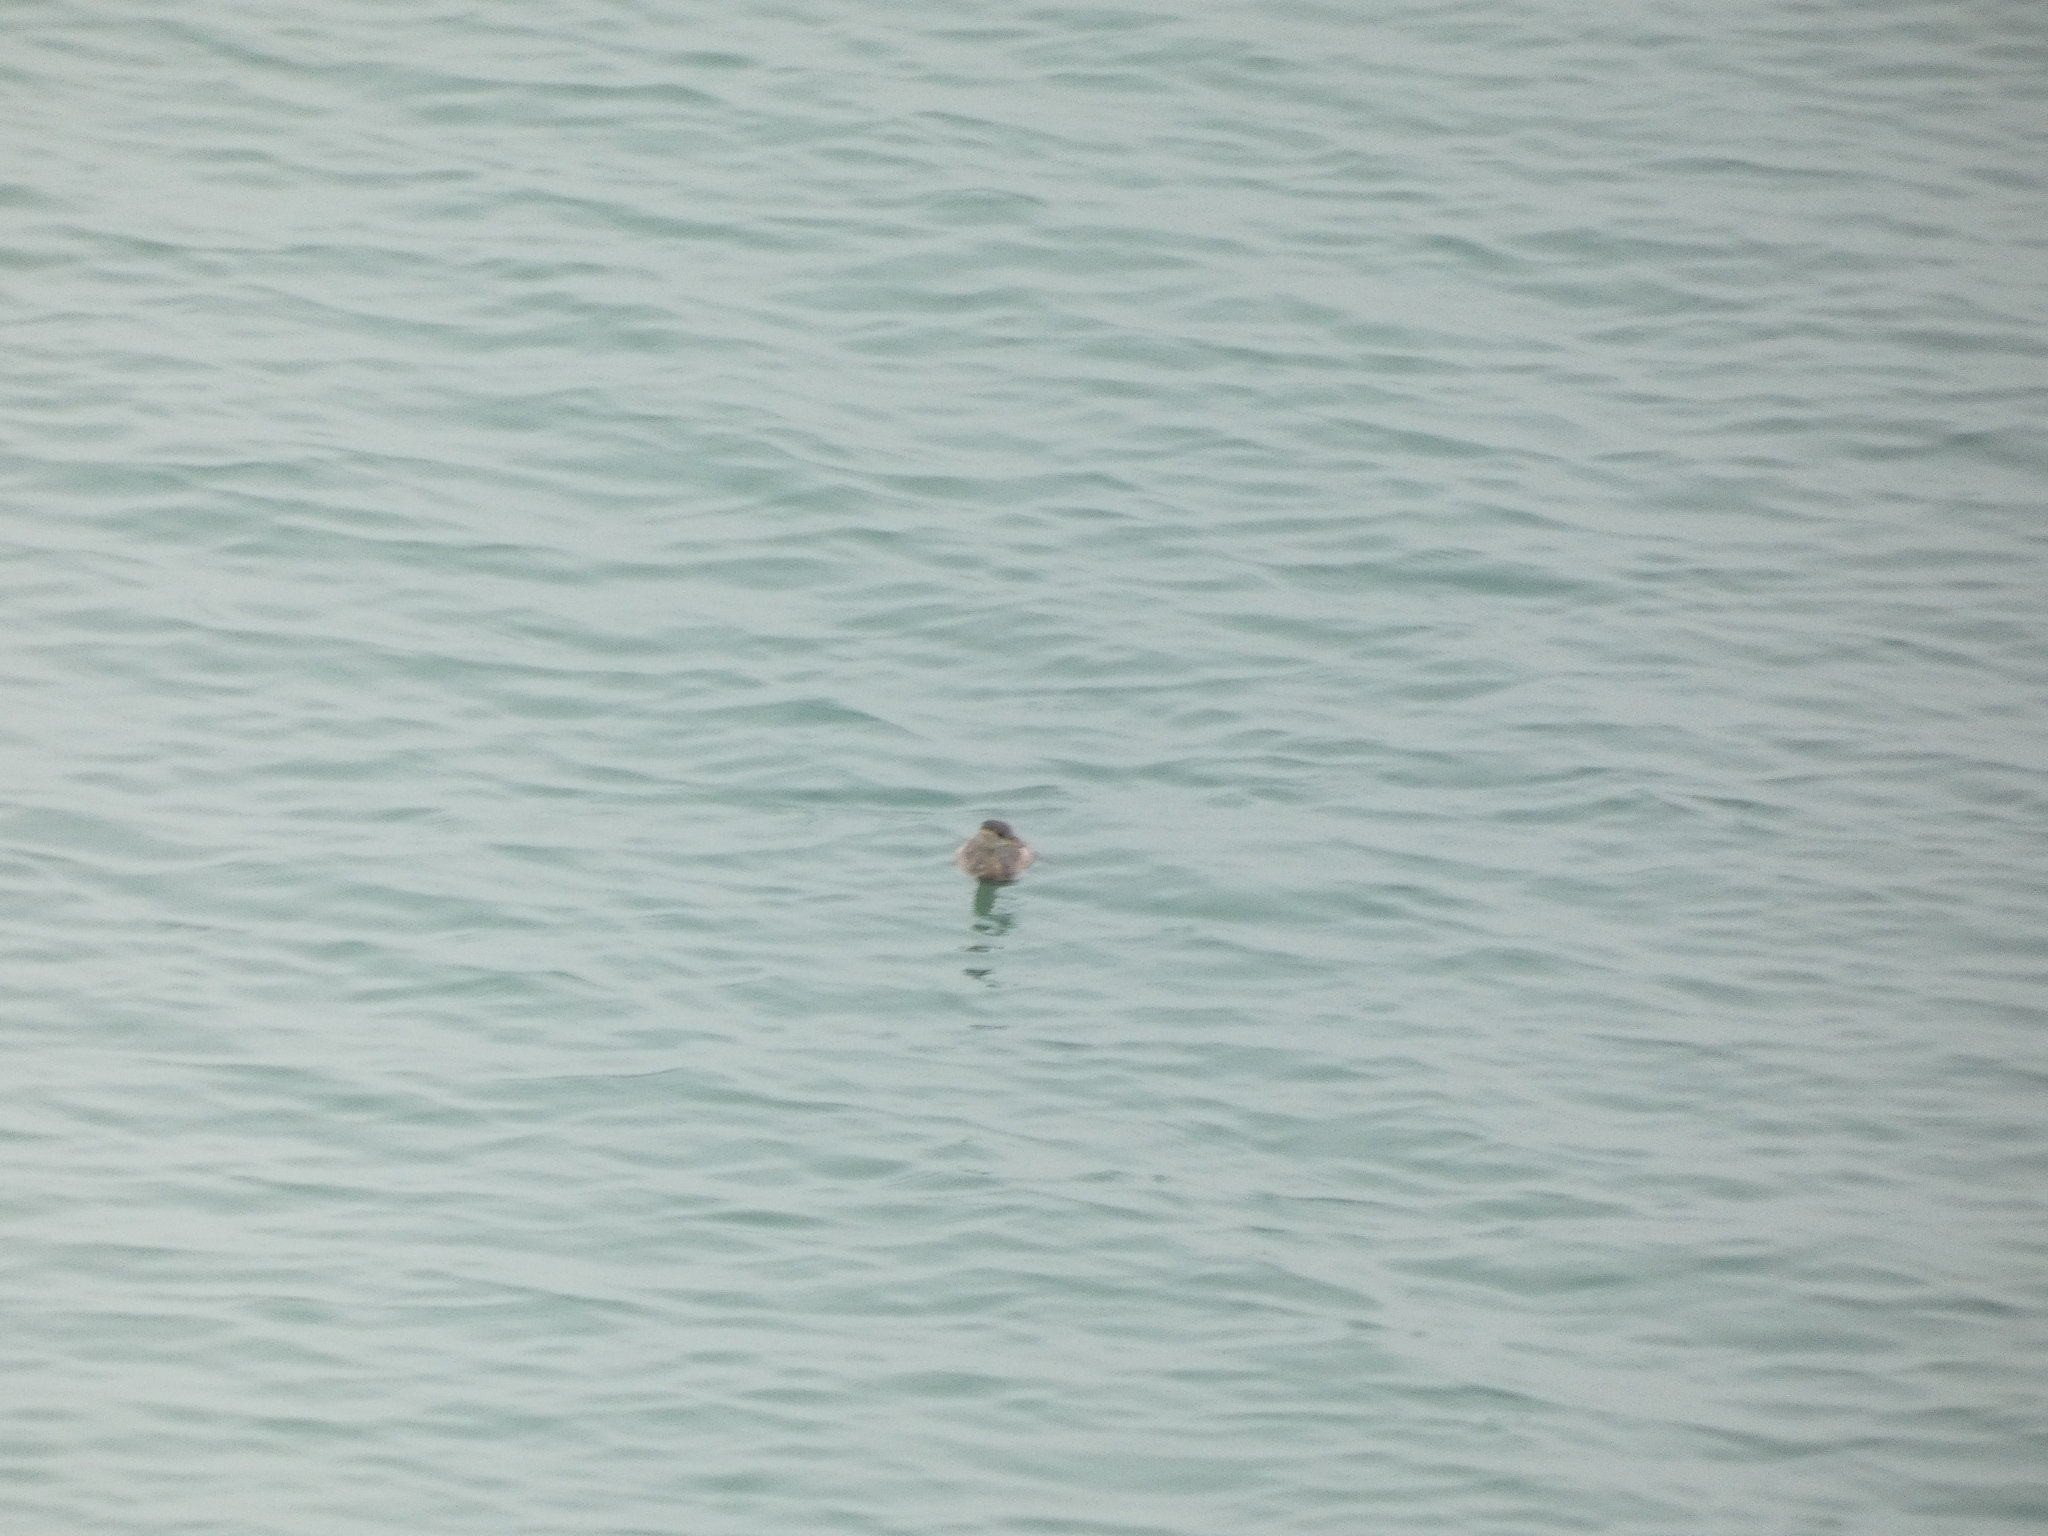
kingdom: Animalia
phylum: Chordata
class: Aves
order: Podicipediformes
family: Podicipedidae
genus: Tachybaptus
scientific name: Tachybaptus ruficollis
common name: Little grebe
